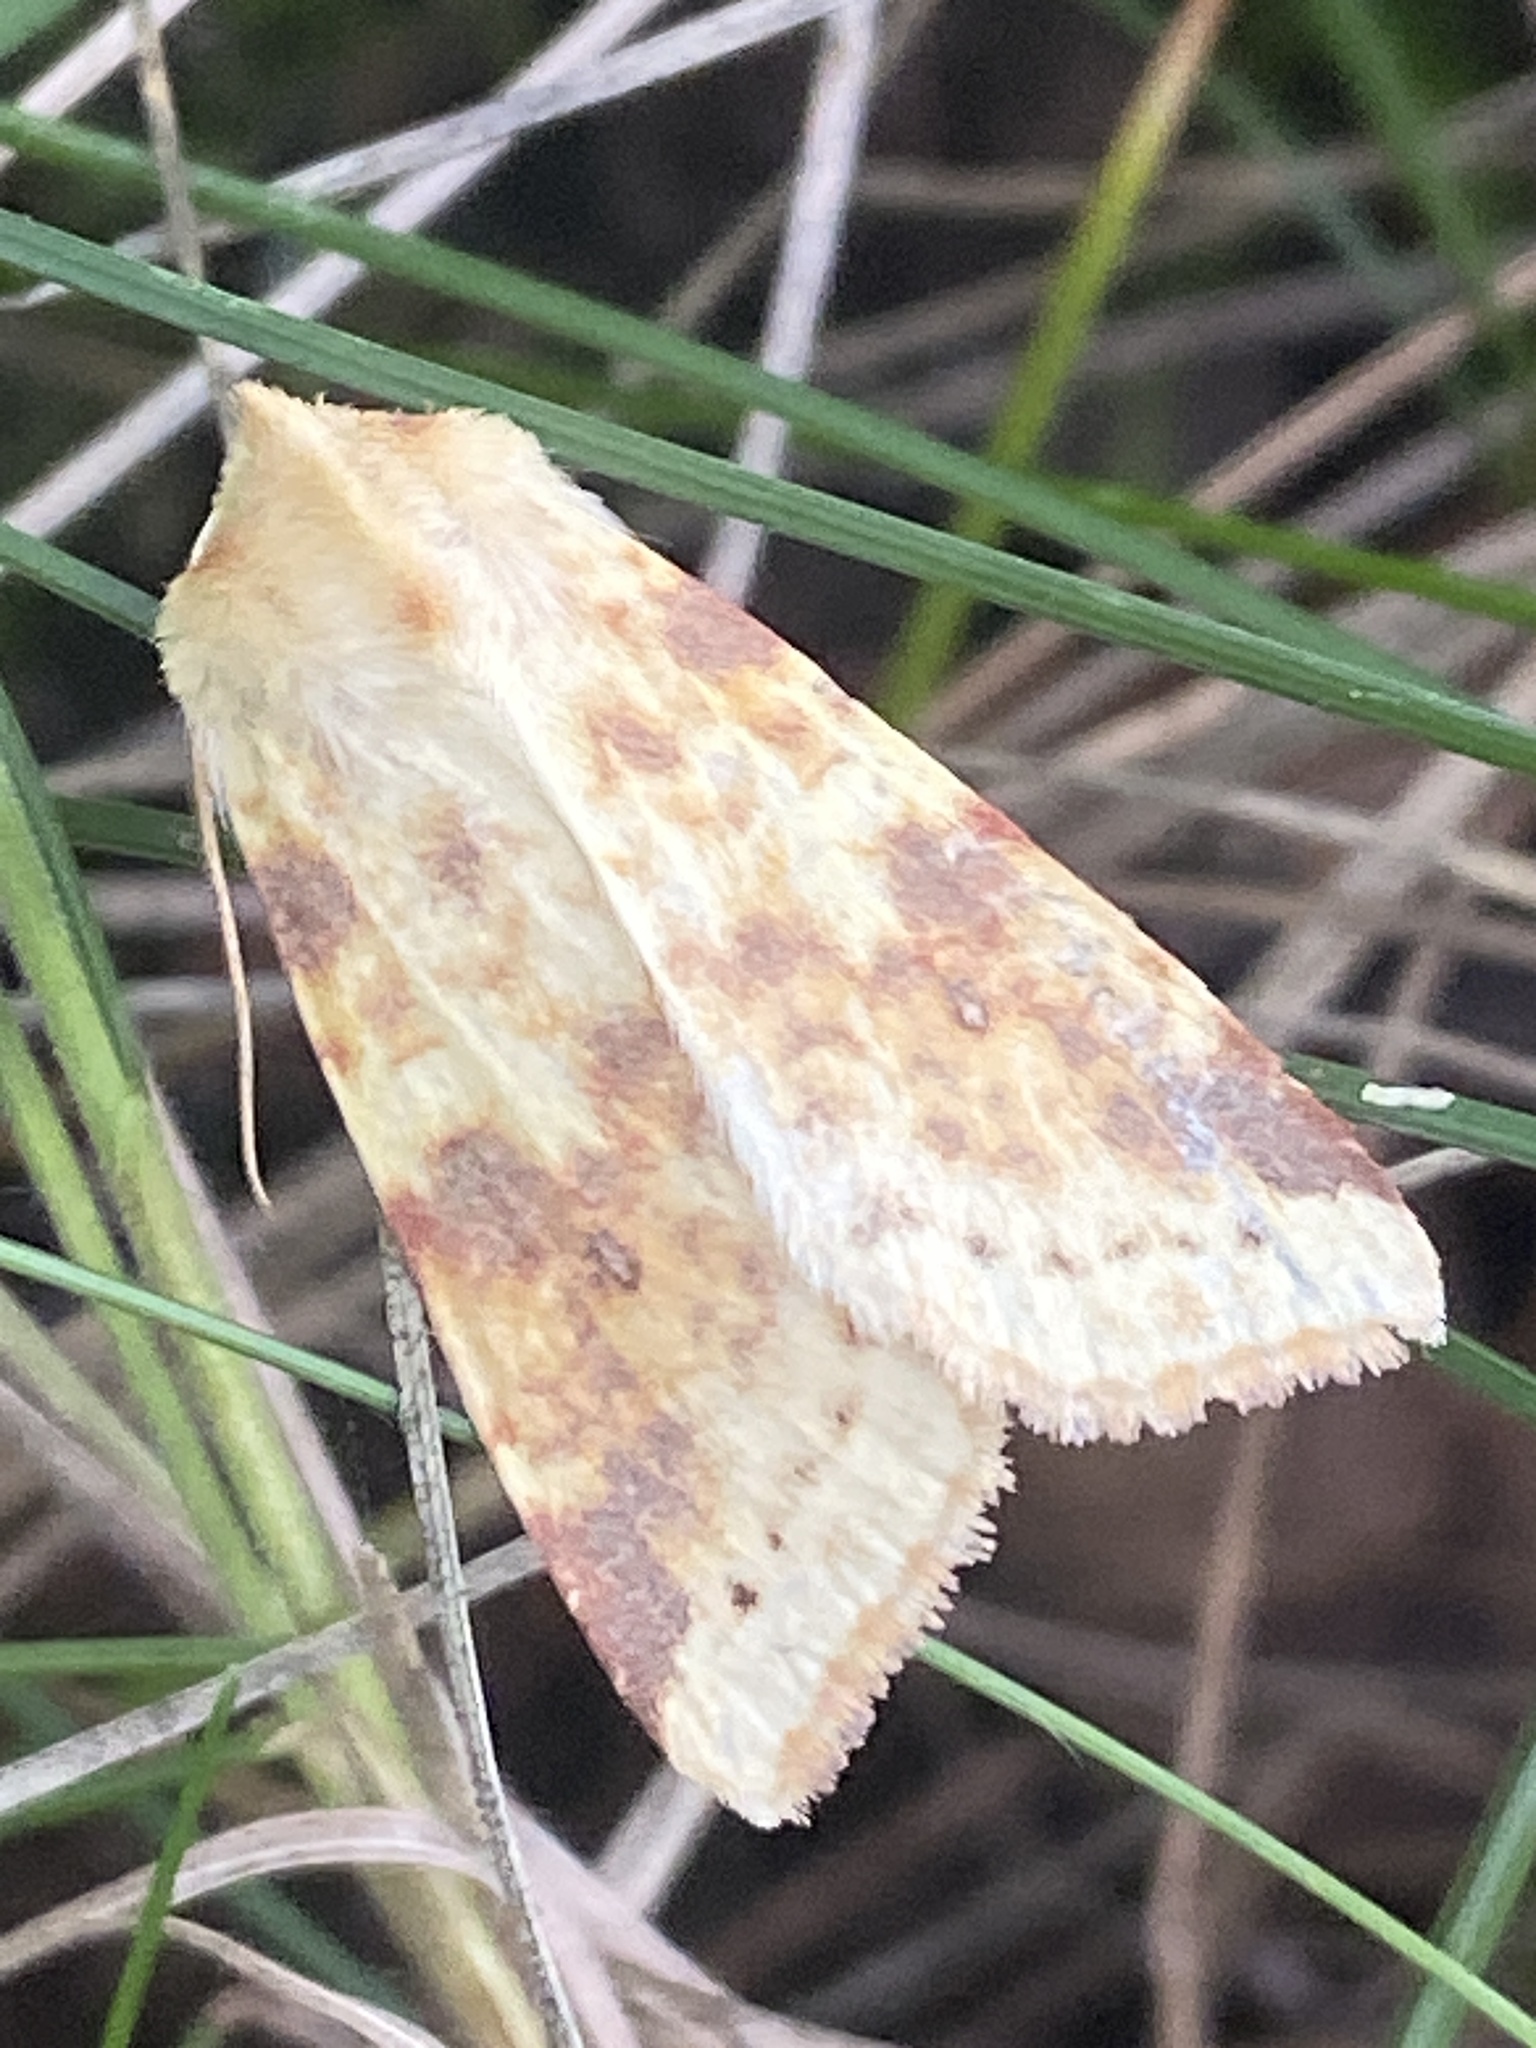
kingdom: Animalia
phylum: Arthropoda
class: Insecta
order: Lepidoptera
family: Noctuidae
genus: Xanthia
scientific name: Xanthia icteritia
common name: The sallow
